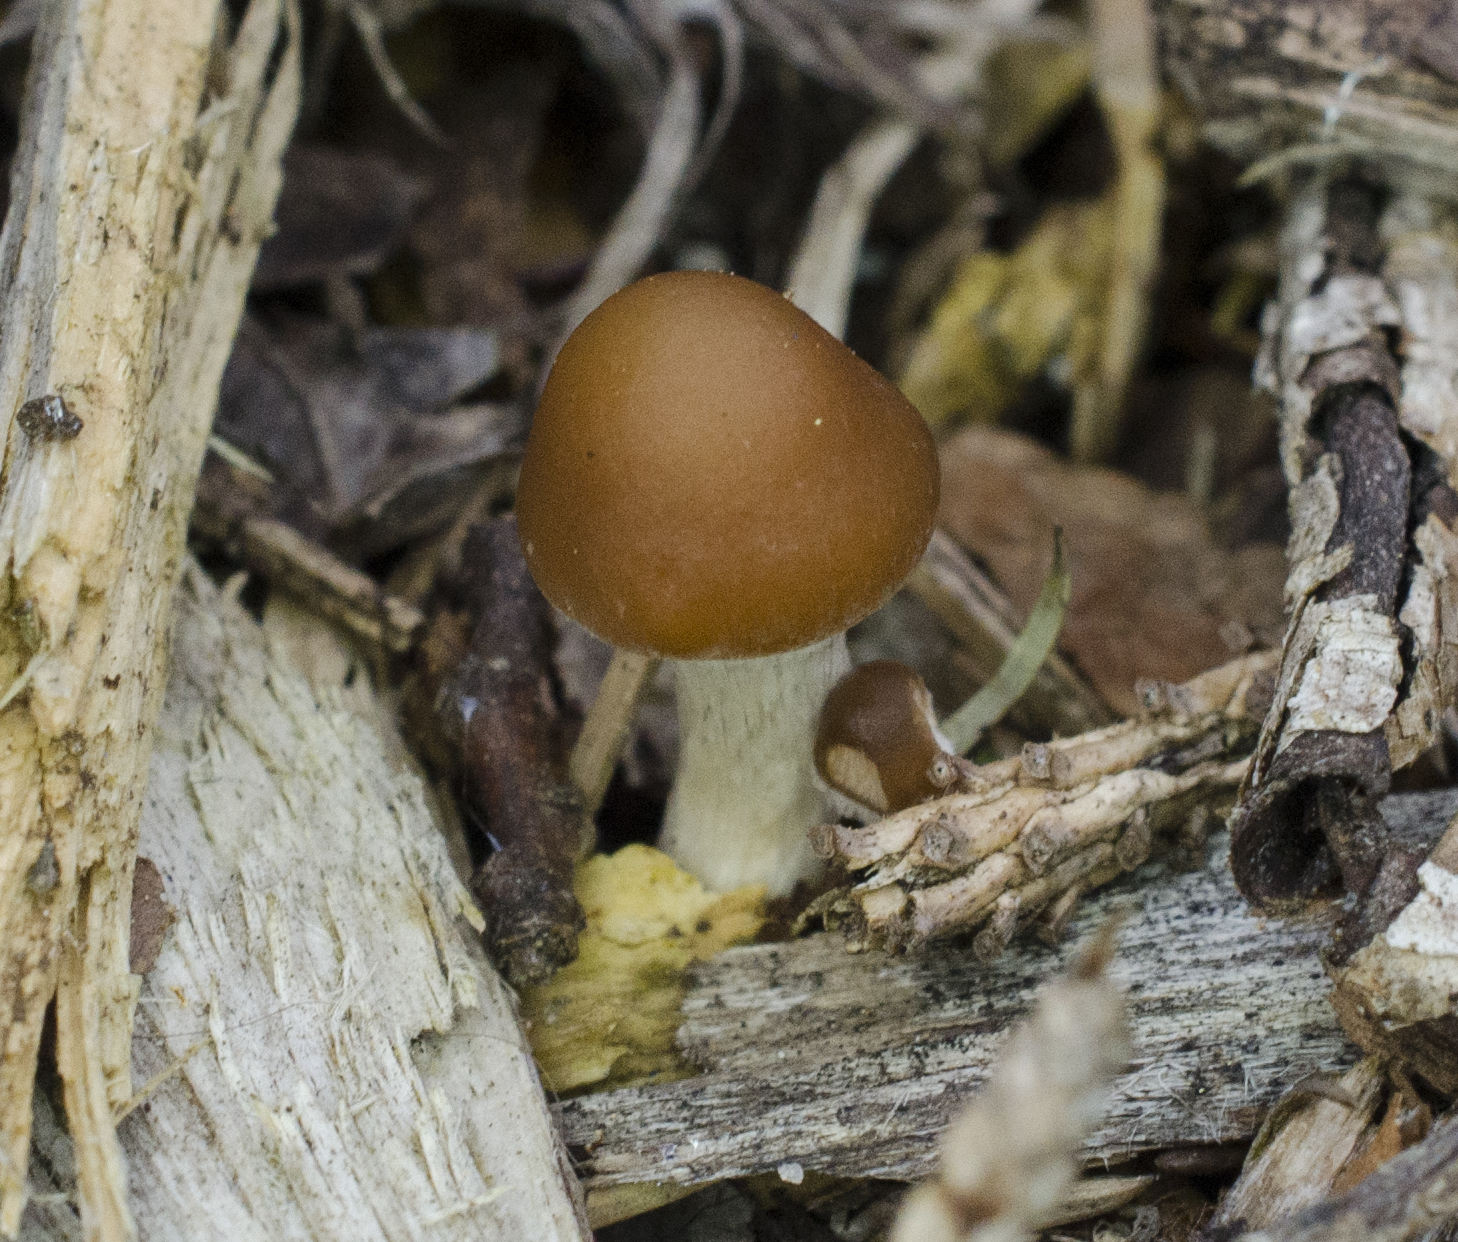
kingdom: Fungi
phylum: Basidiomycota
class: Agaricomycetes
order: Agaricales
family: Hymenogastraceae
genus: Psilocybe
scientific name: Psilocybe cyanescens
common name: Blueleg brownie
